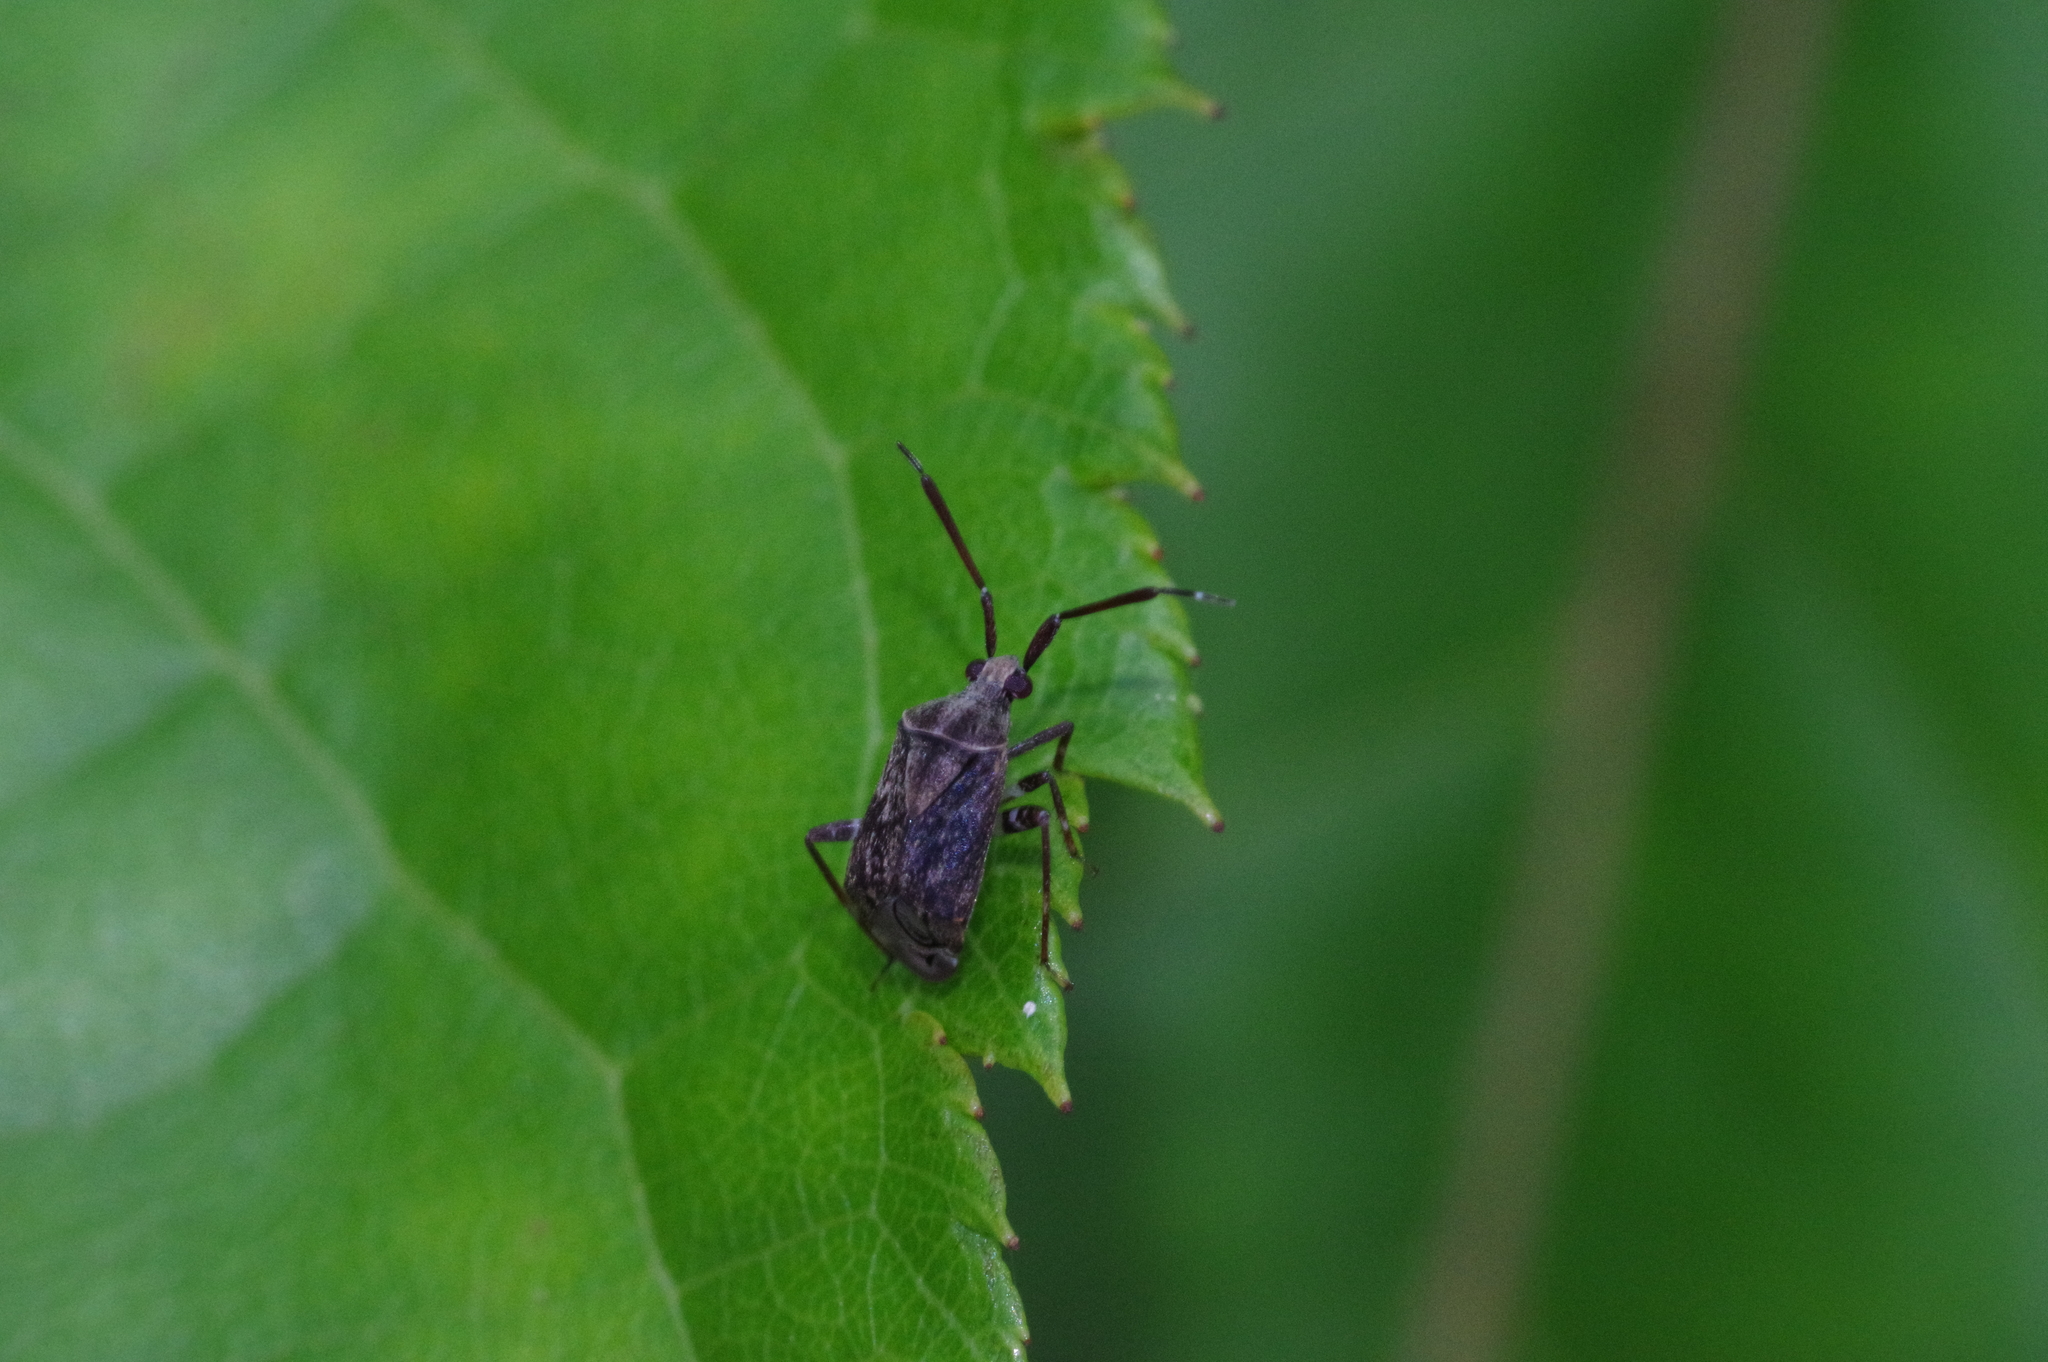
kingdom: Animalia
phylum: Arthropoda
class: Insecta
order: Hemiptera
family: Miridae
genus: Eurystylus
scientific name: Eurystylus ryukyus
